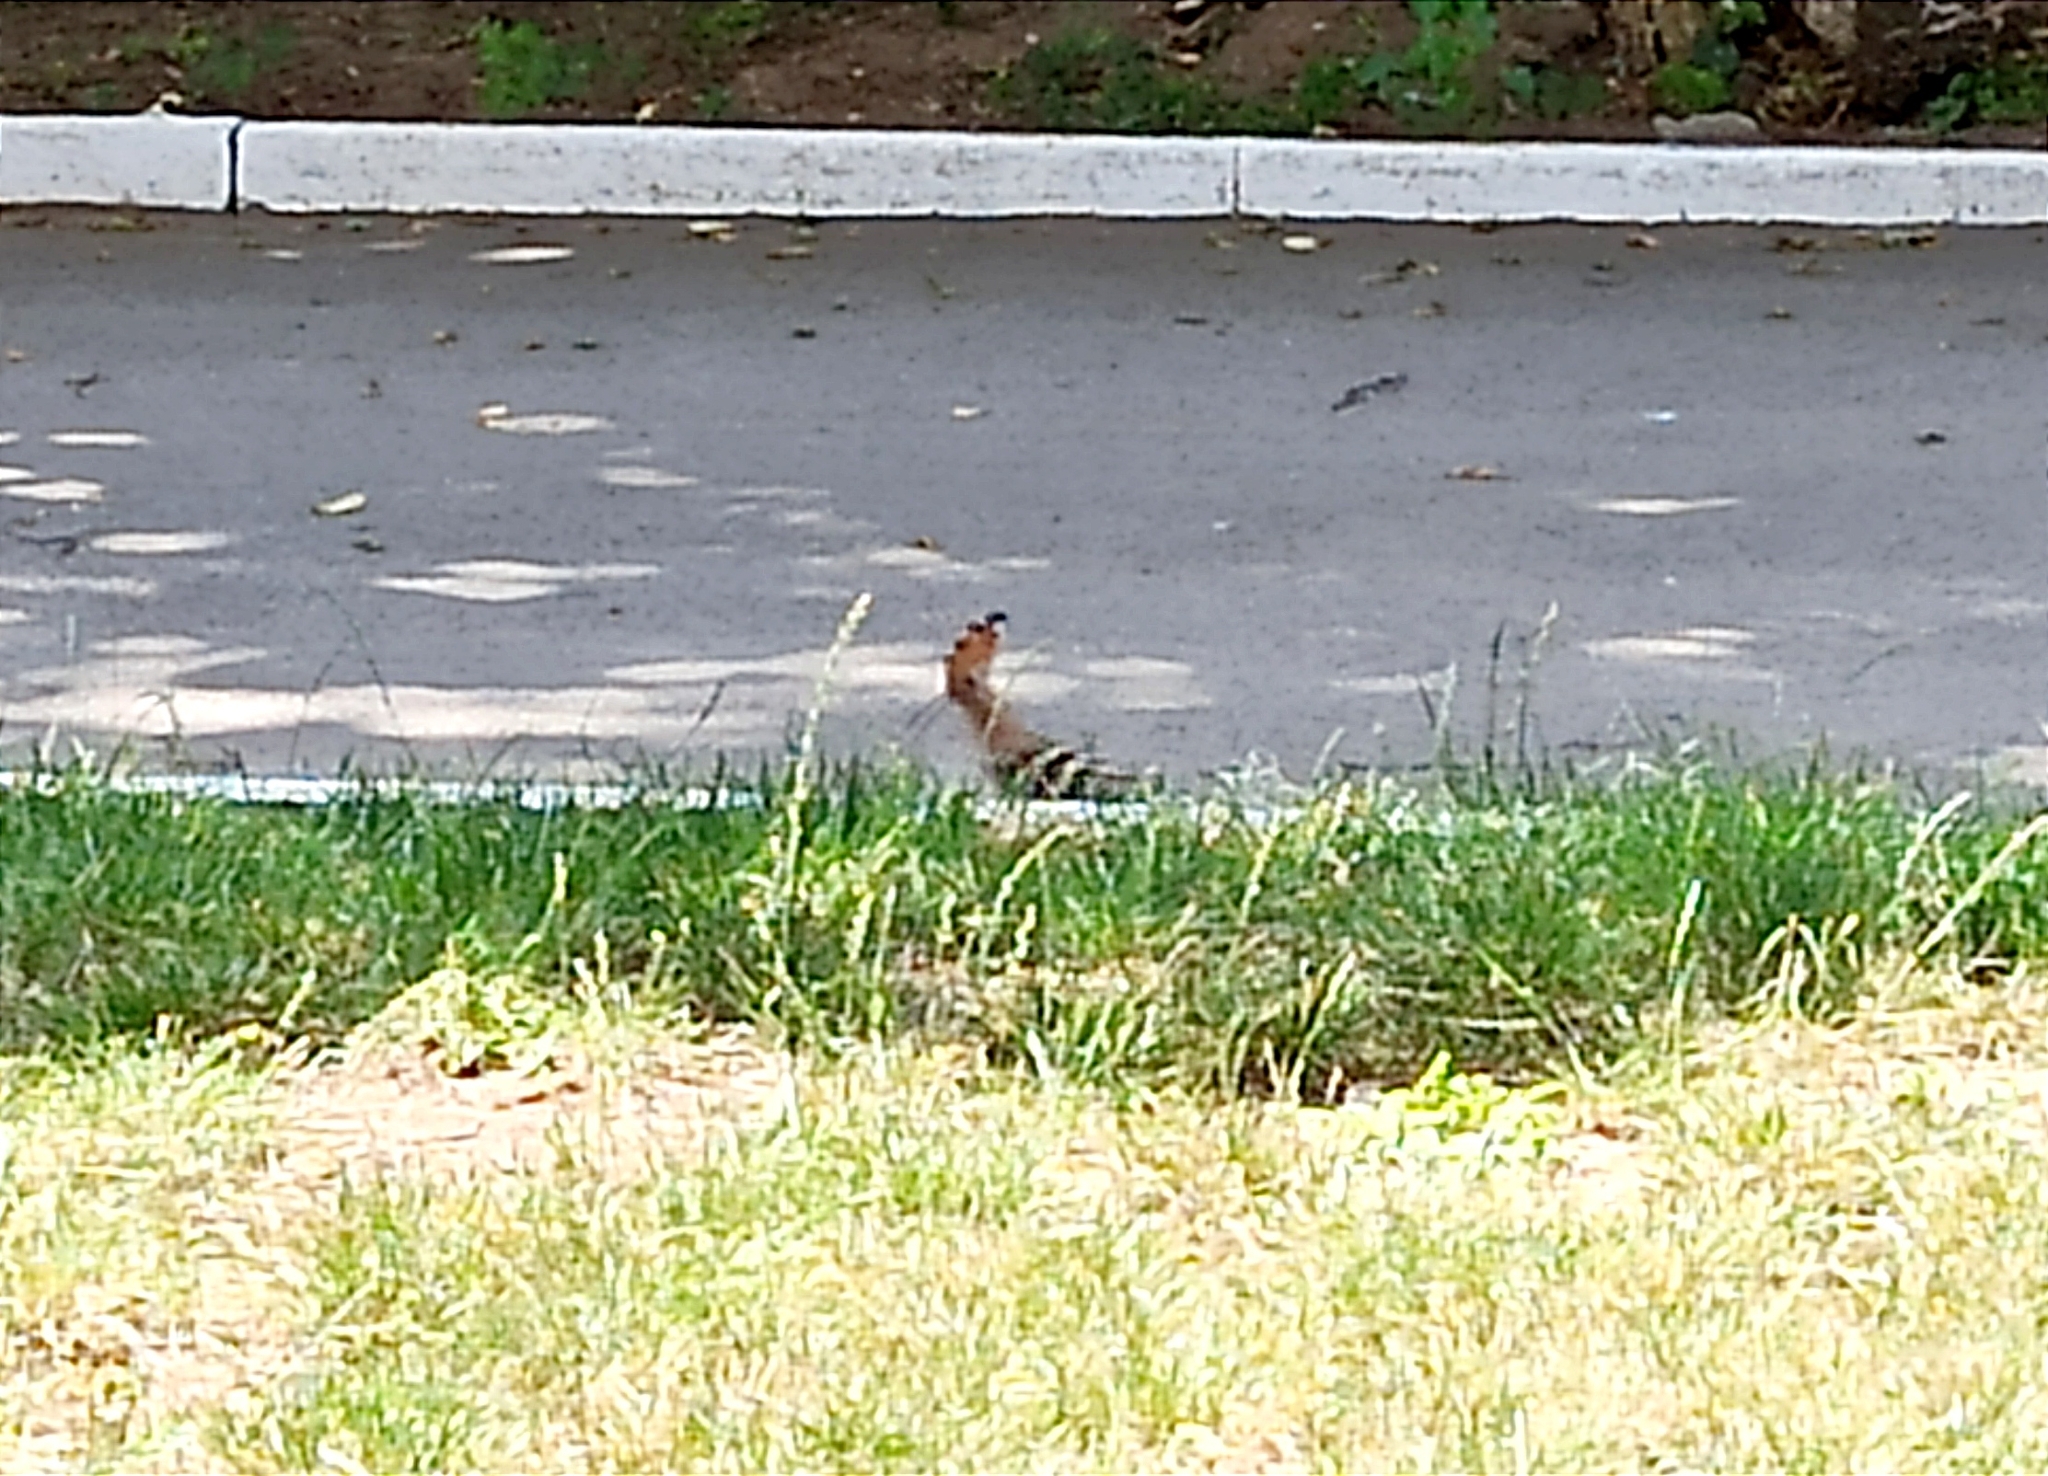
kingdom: Animalia
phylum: Chordata
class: Aves
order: Bucerotiformes
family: Upupidae
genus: Upupa
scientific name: Upupa epops
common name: Eurasian hoopoe
